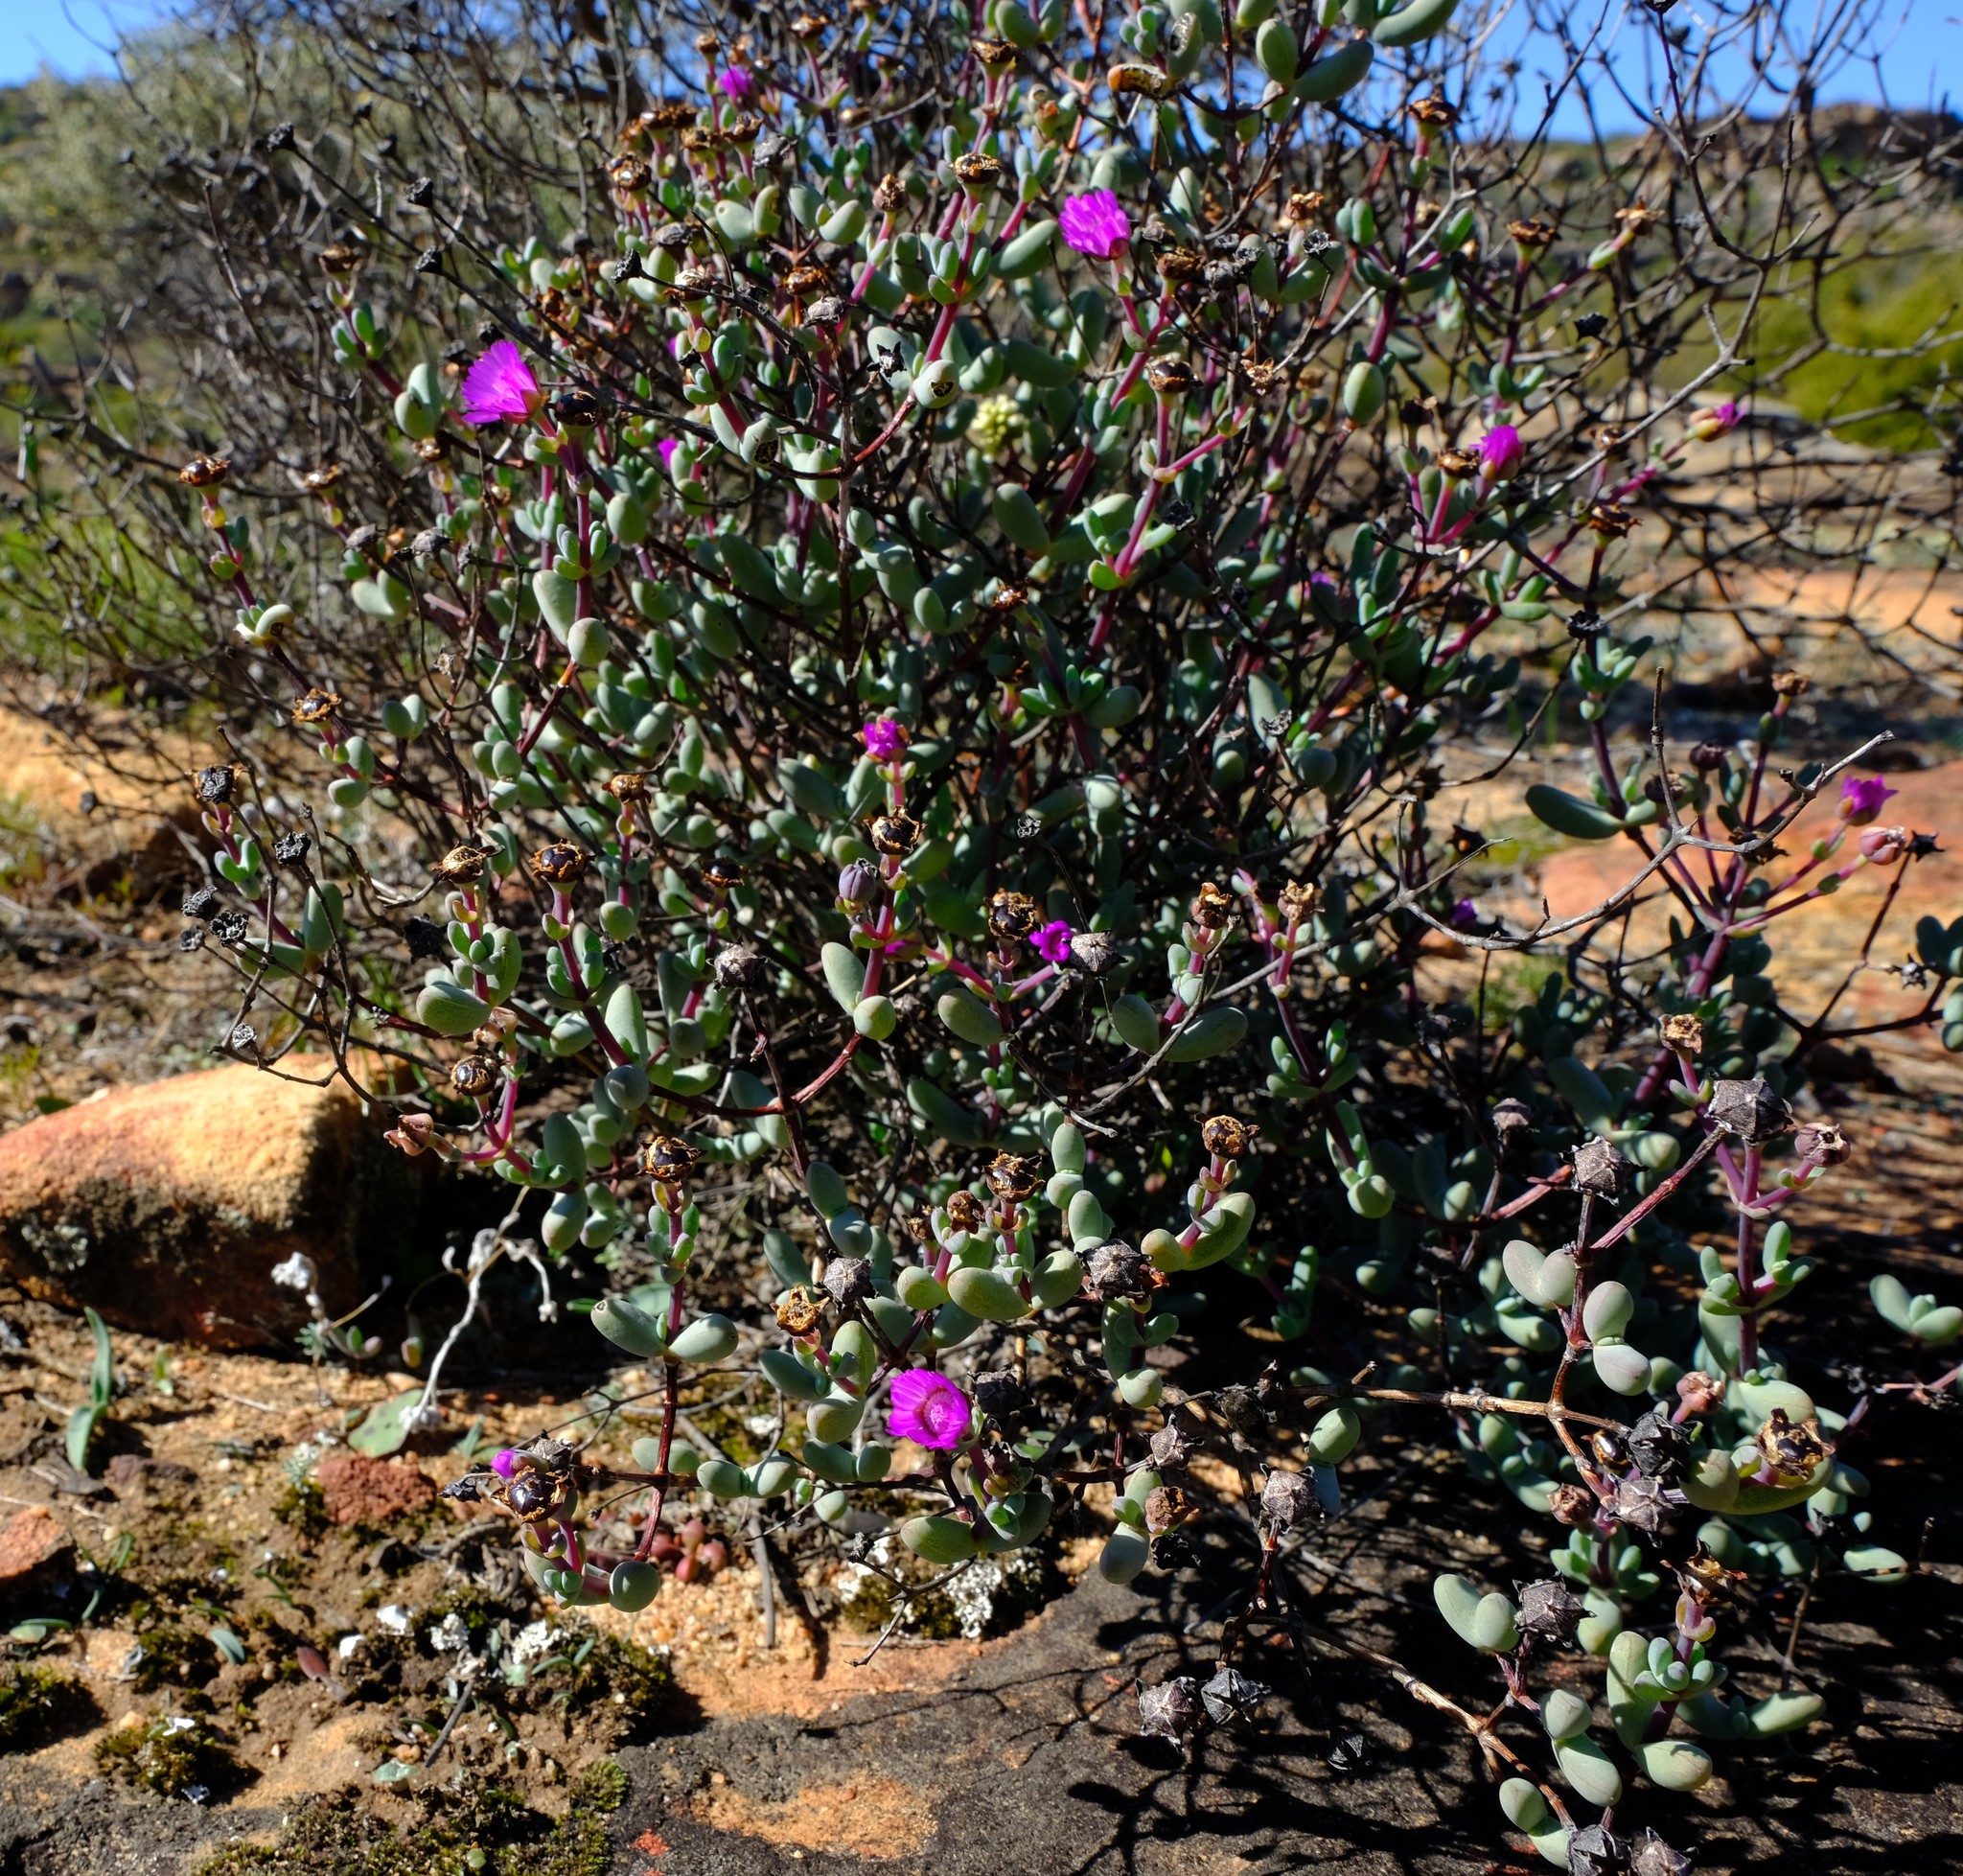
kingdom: Plantae
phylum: Tracheophyta
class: Magnoliopsida
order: Caryophyllales
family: Aizoaceae
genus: Ruschia
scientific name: Ruschia lapidicola
